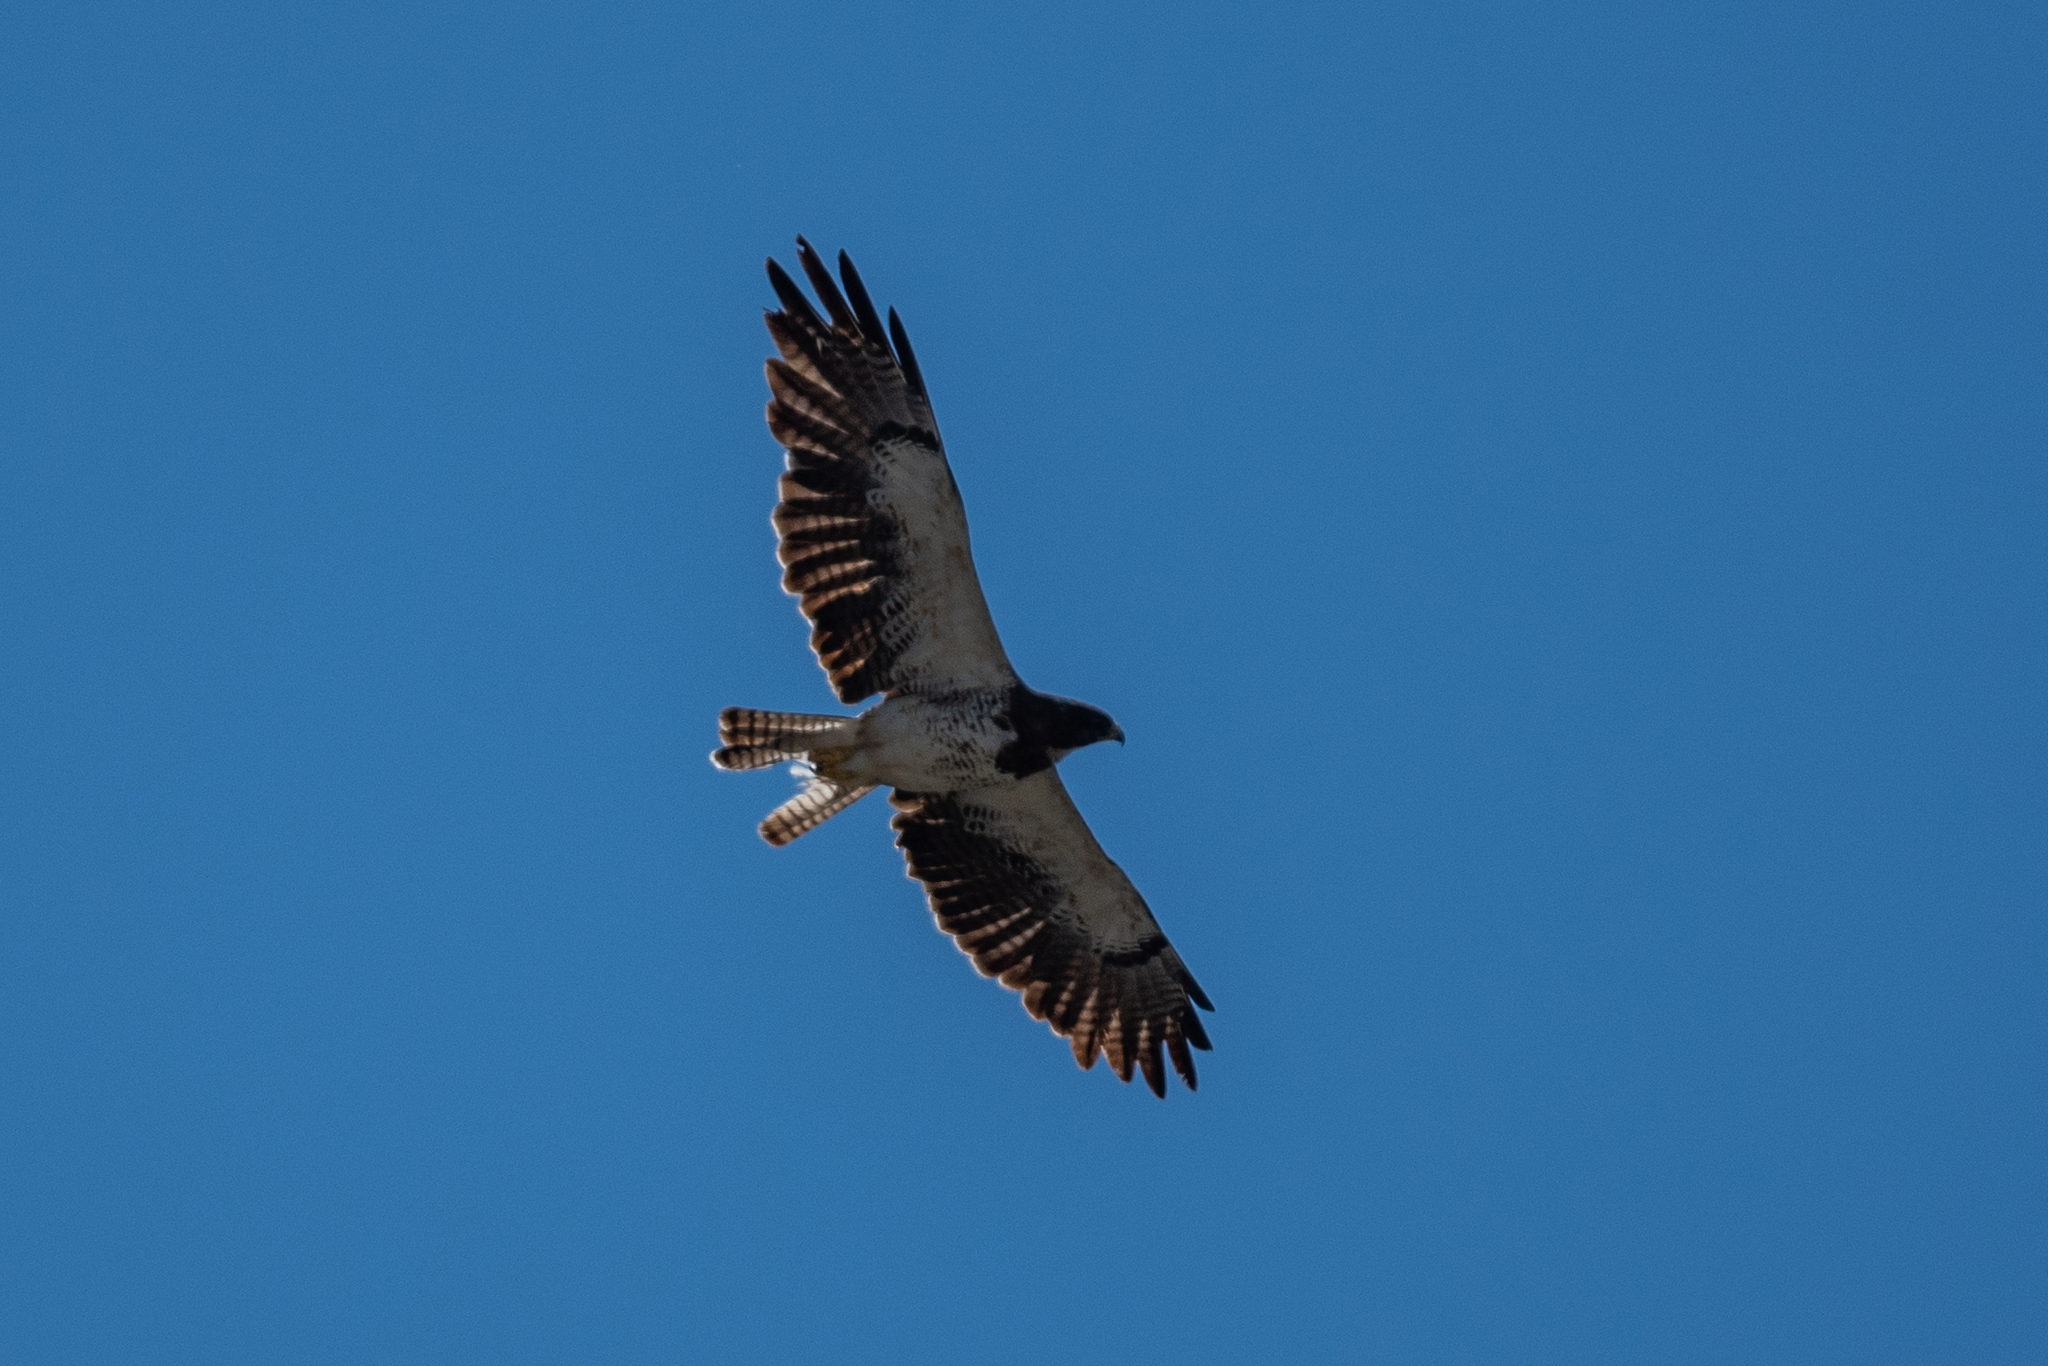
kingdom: Animalia
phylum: Chordata
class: Aves
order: Accipitriformes
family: Accipitridae
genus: Buteo
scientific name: Buteo swainsoni
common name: Swainson's hawk
